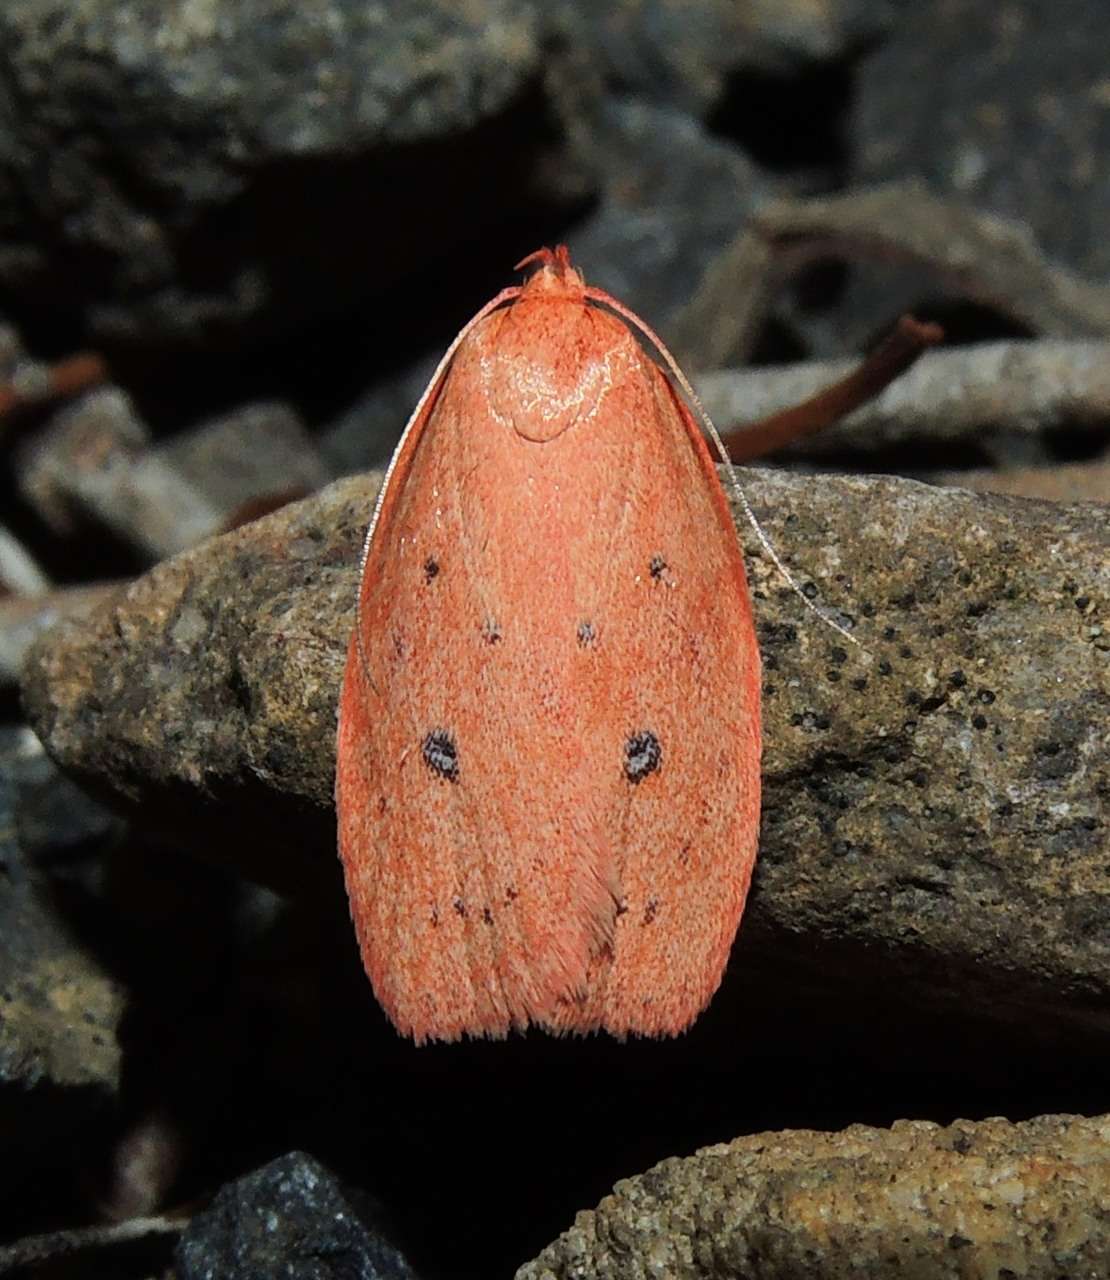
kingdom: Animalia
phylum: Arthropoda
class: Insecta
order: Lepidoptera
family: Oecophoridae
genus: Garrha
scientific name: Garrha pudica
